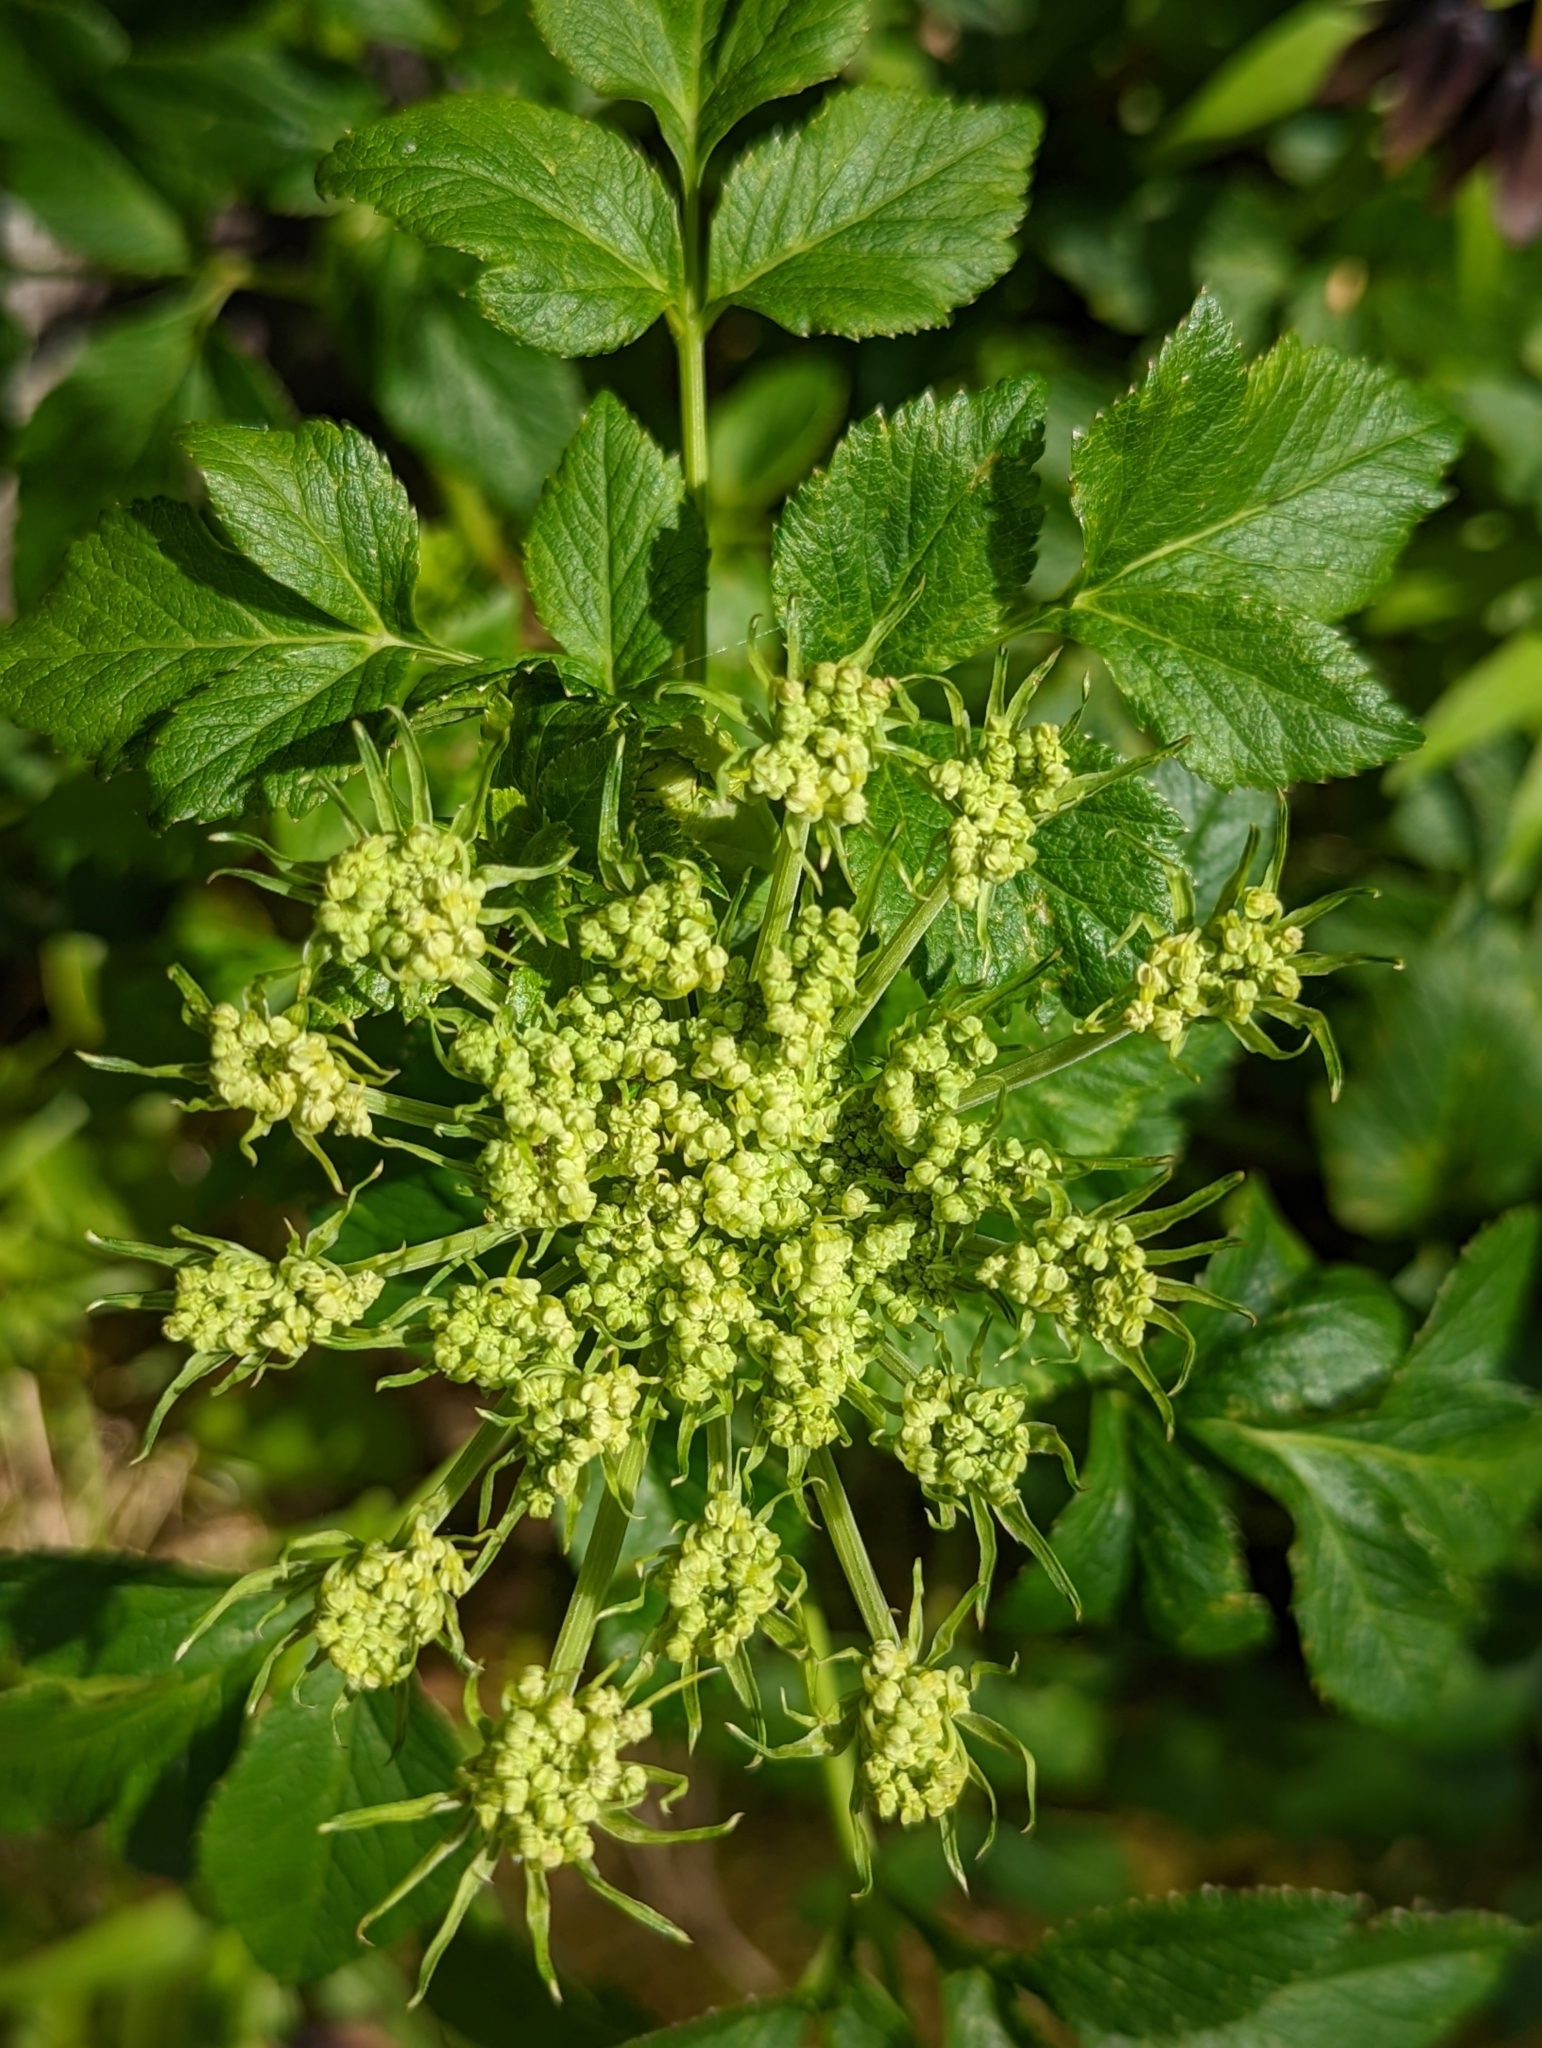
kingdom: Plantae
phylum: Tracheophyta
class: Magnoliopsida
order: Apiales
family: Apiaceae
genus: Angelica
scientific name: Angelica lucida
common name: Seabeach angelica
